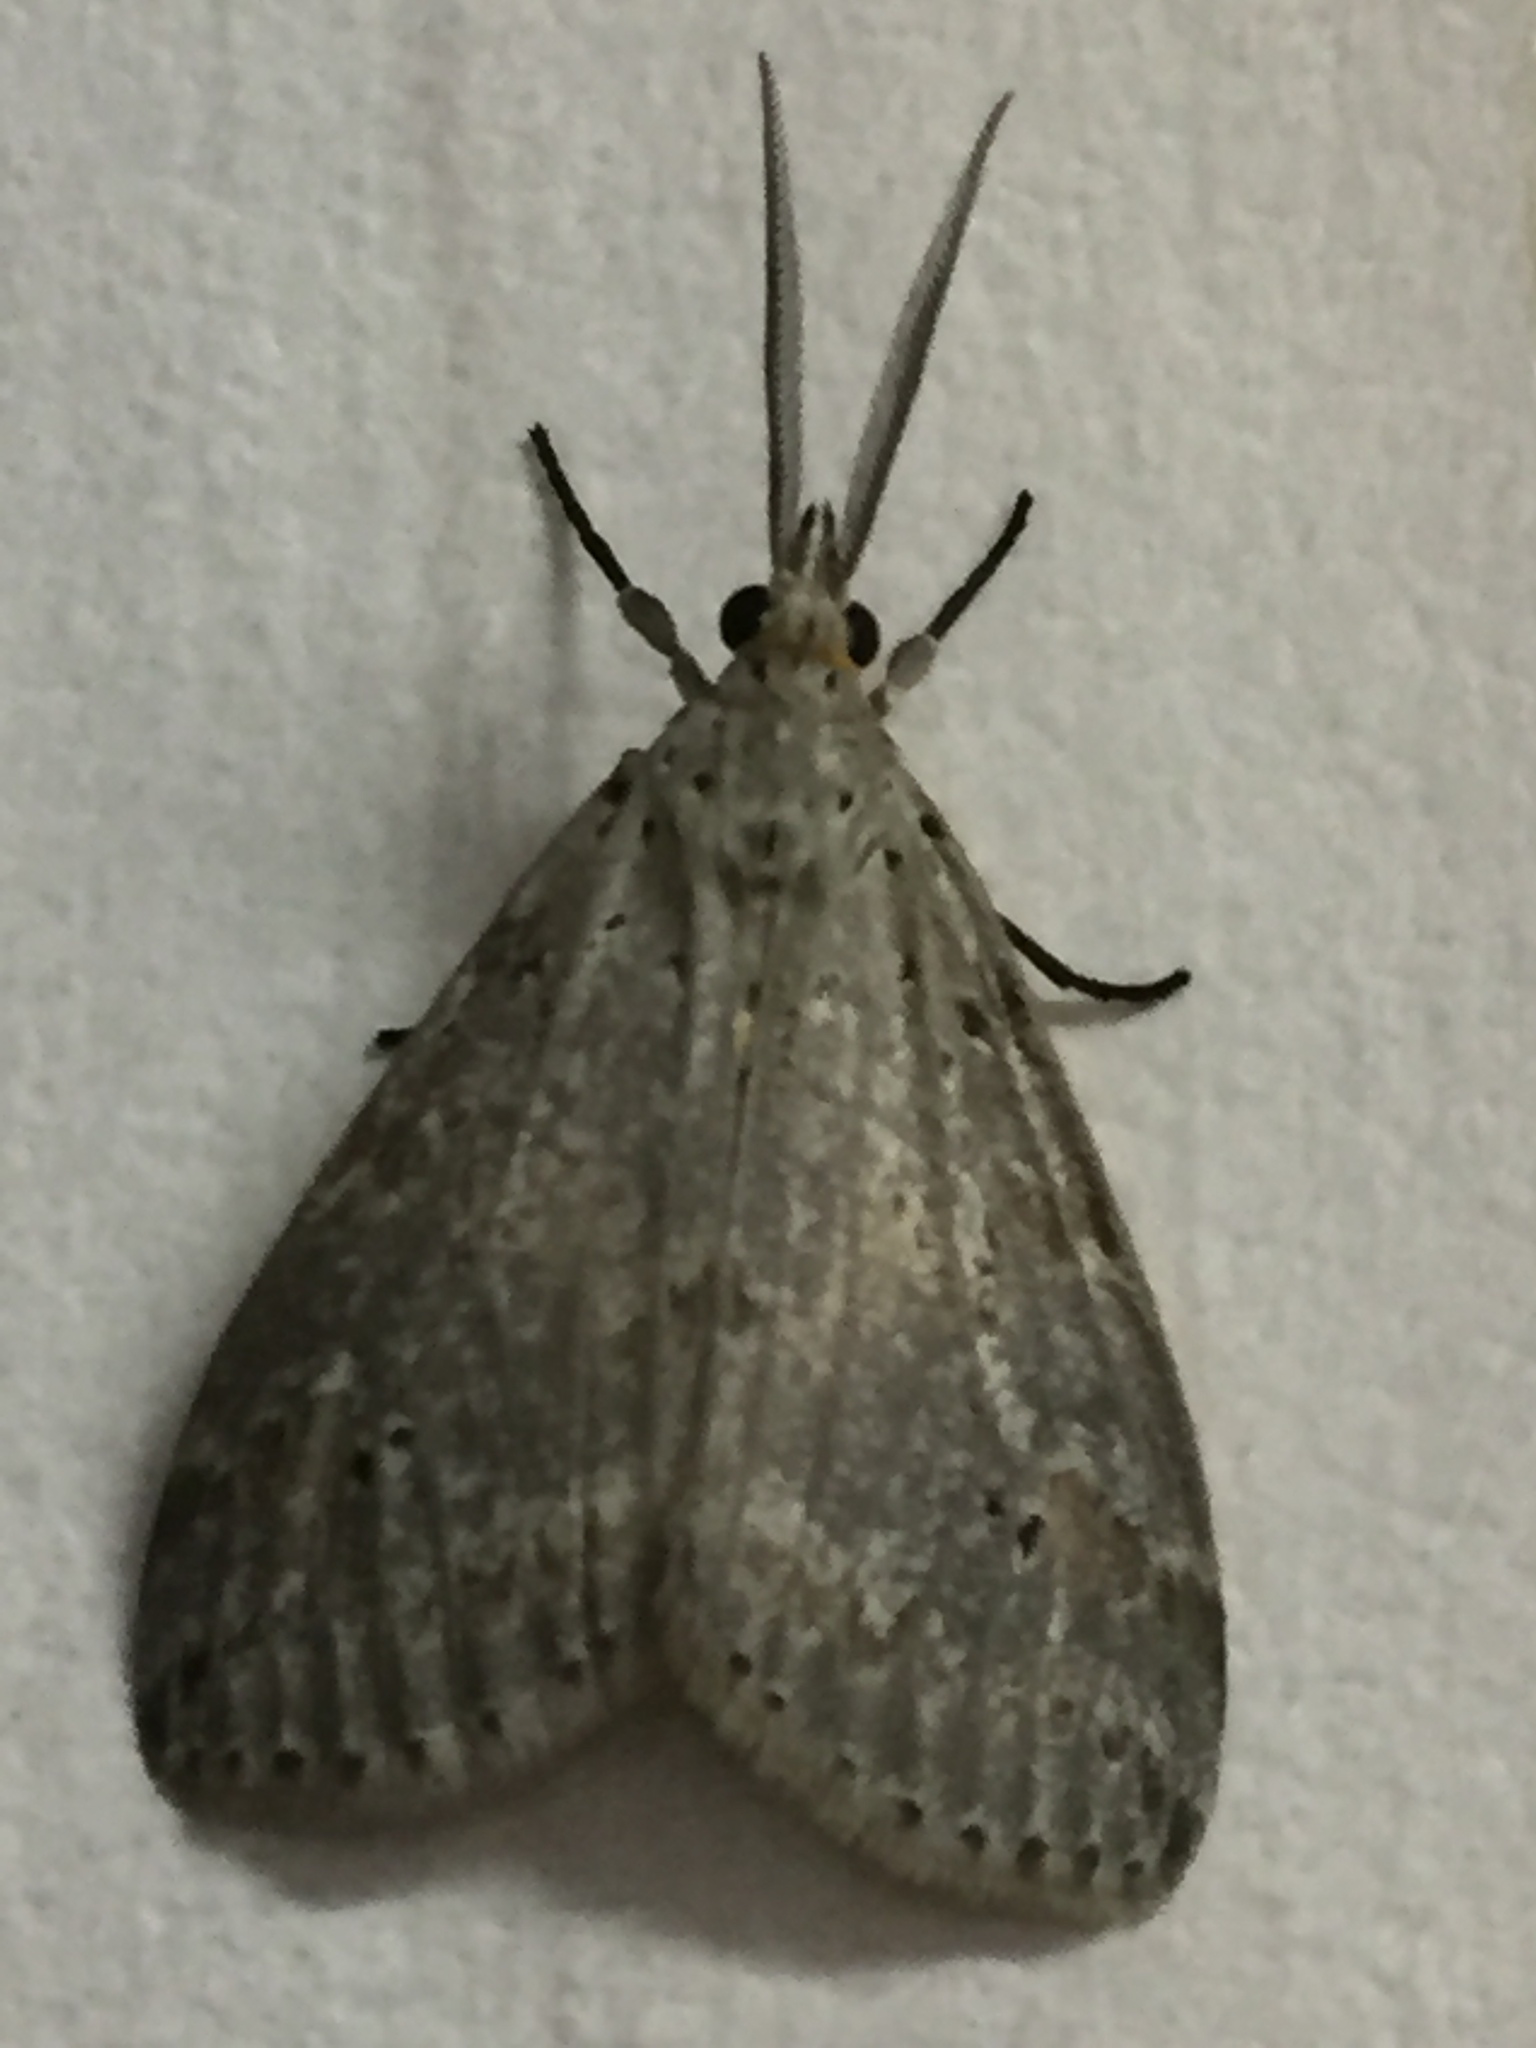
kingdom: Animalia
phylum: Arthropoda
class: Insecta
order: Lepidoptera
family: Erebidae
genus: Galtara
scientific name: Galtara rostrata
